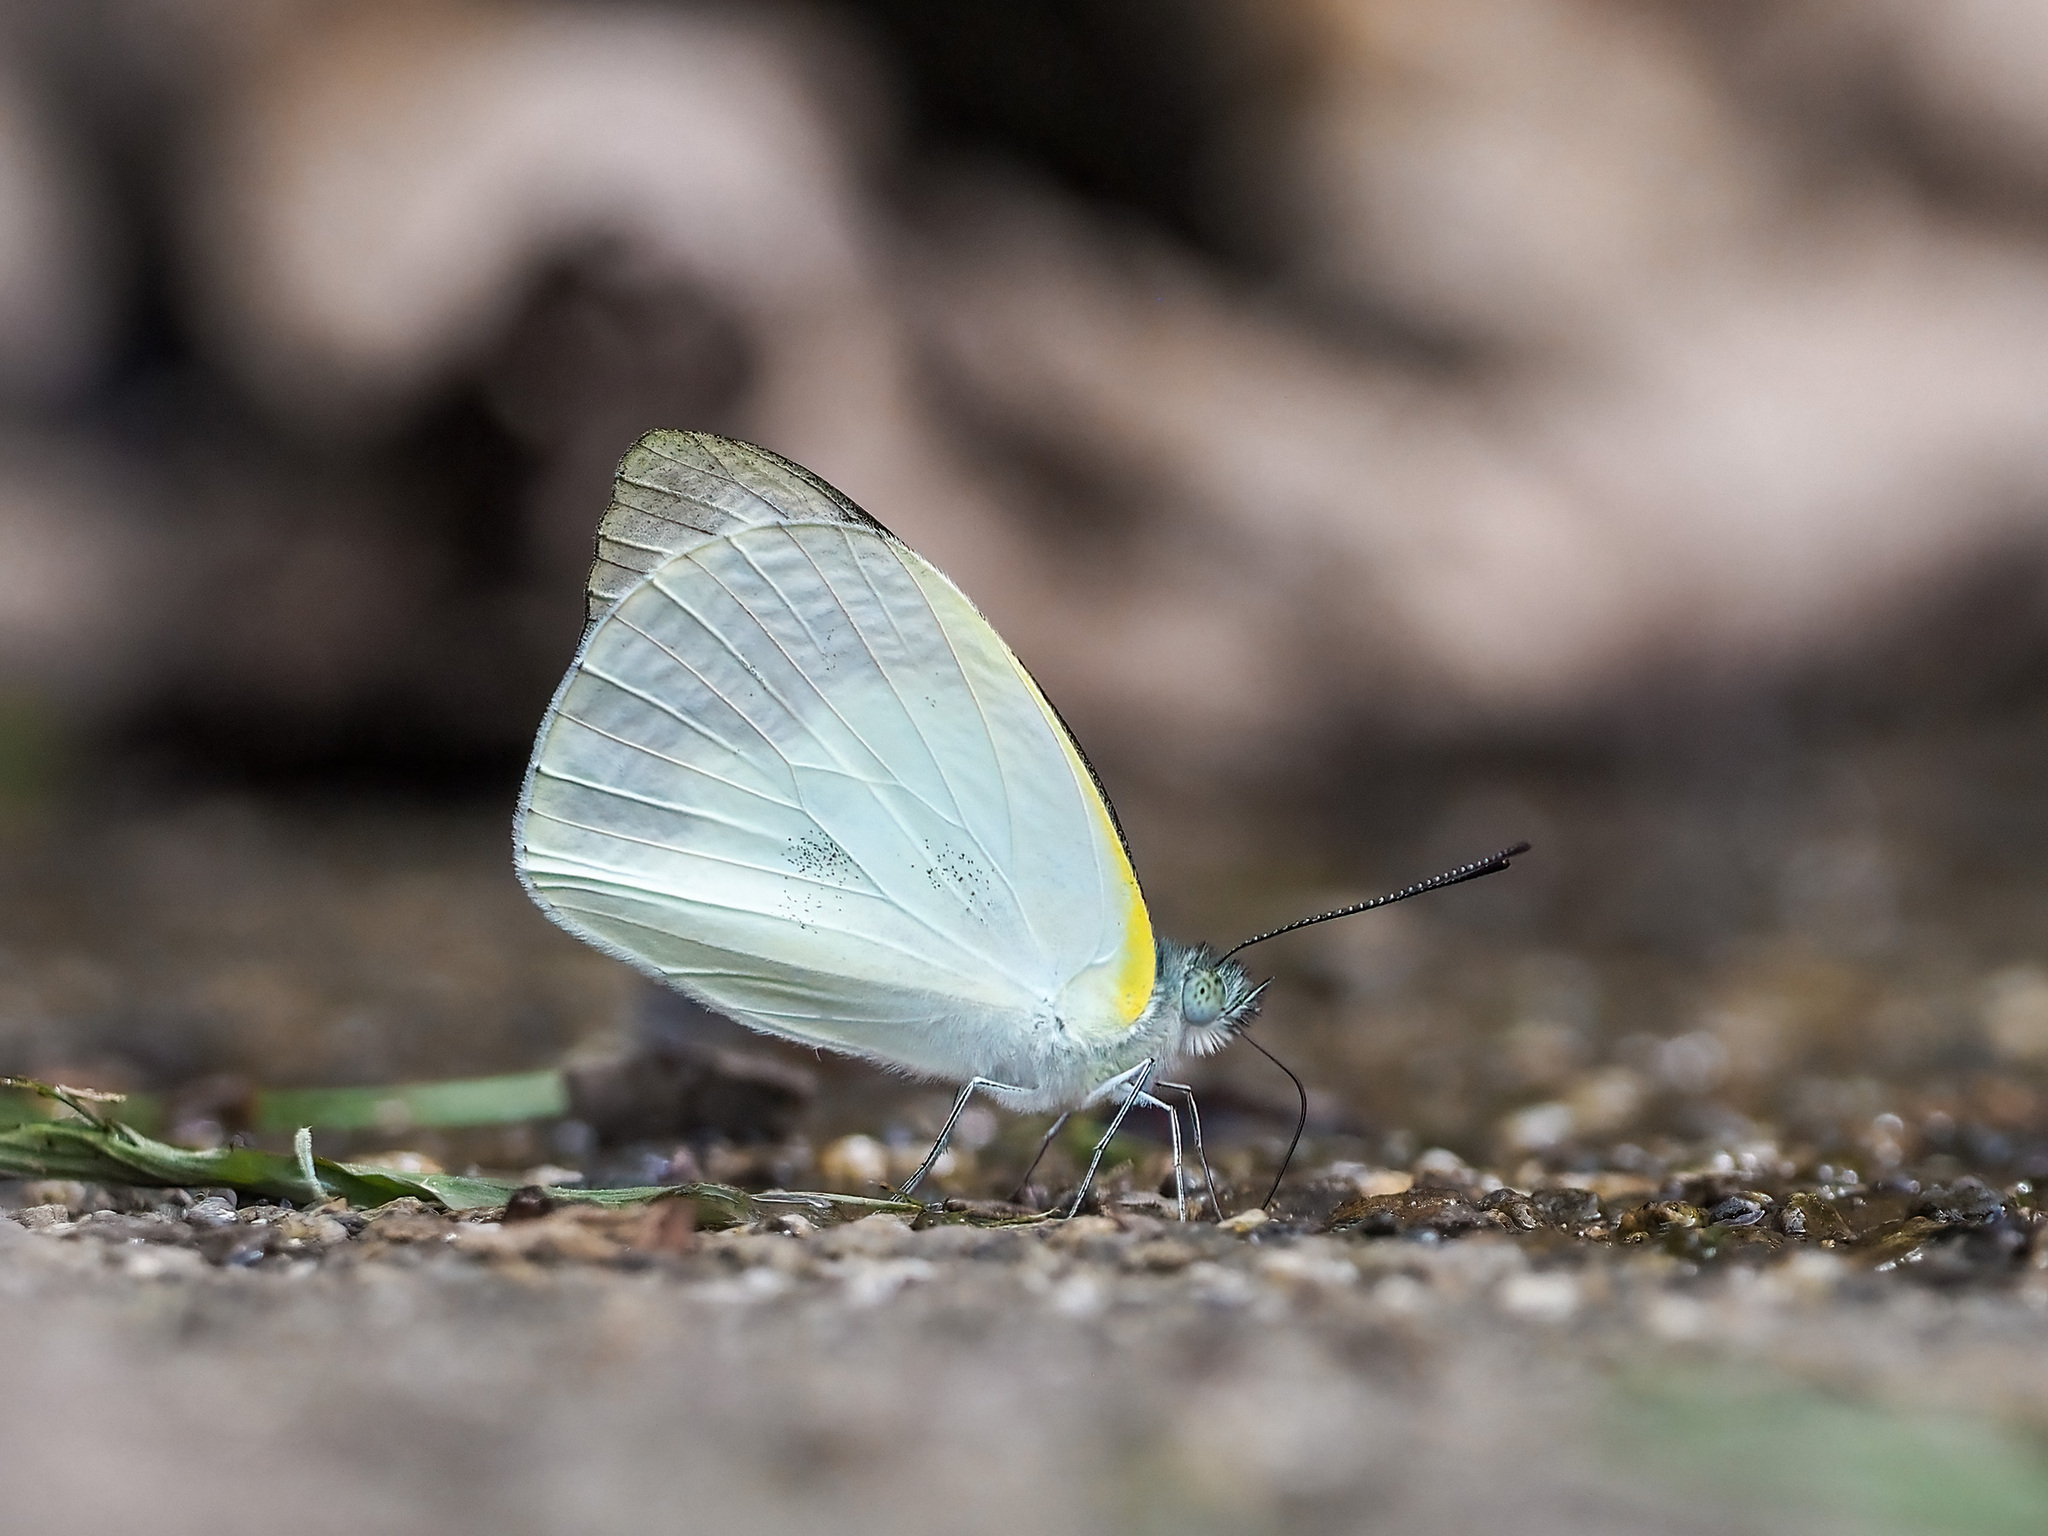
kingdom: Animalia
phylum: Arthropoda
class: Insecta
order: Lepidoptera
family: Pieridae
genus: Appias
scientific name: Appias indra
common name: Plain puffin
